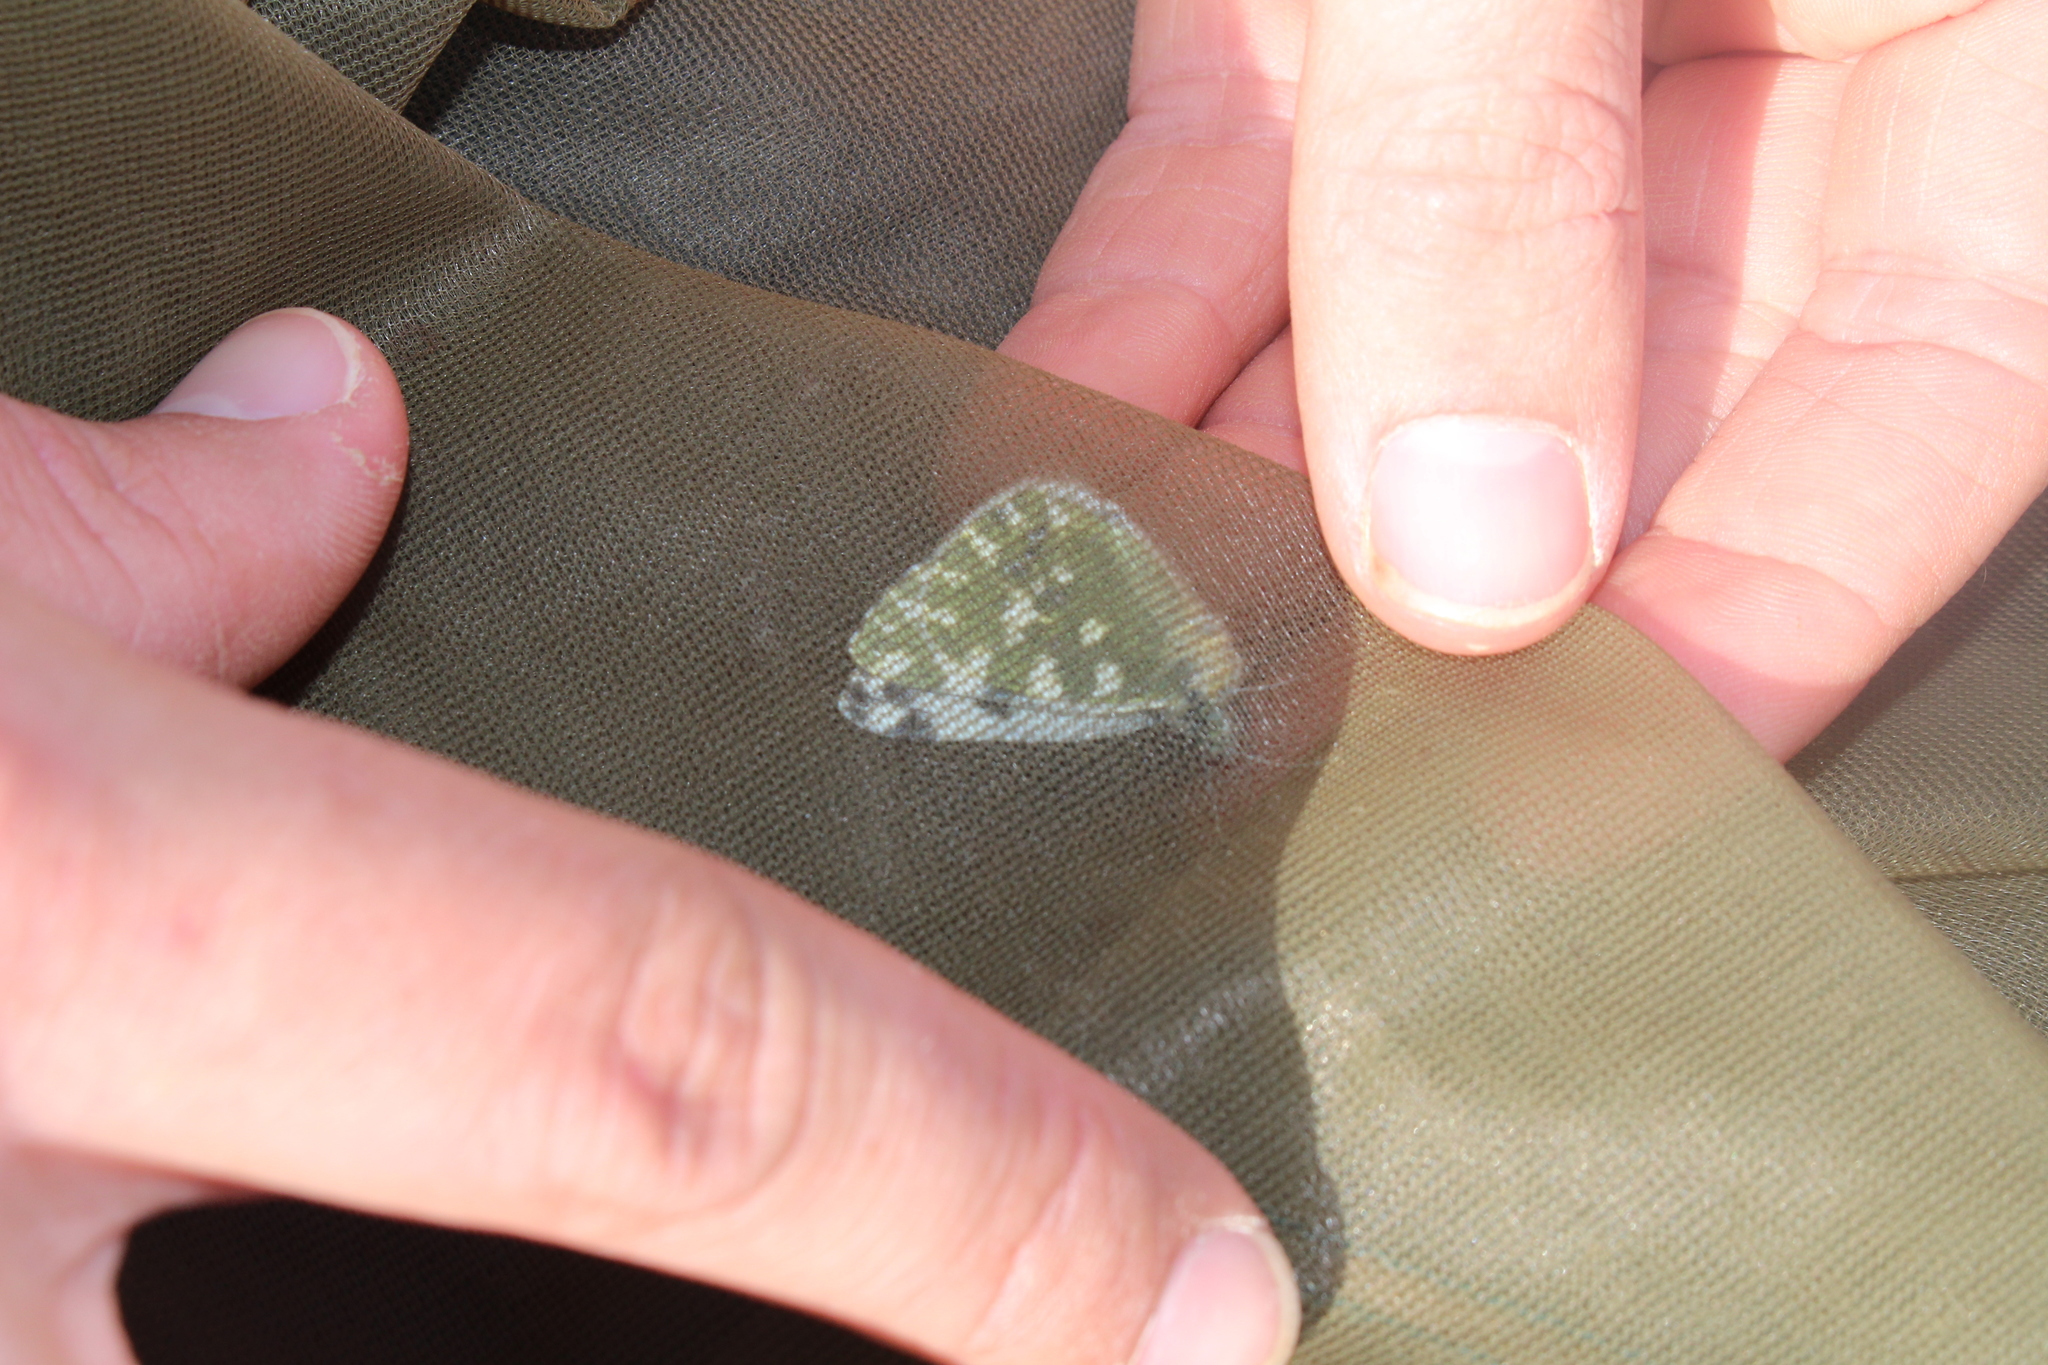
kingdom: Animalia
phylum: Arthropoda
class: Insecta
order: Lepidoptera
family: Pieridae
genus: Pontia
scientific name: Pontia daplidice
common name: Bath white
